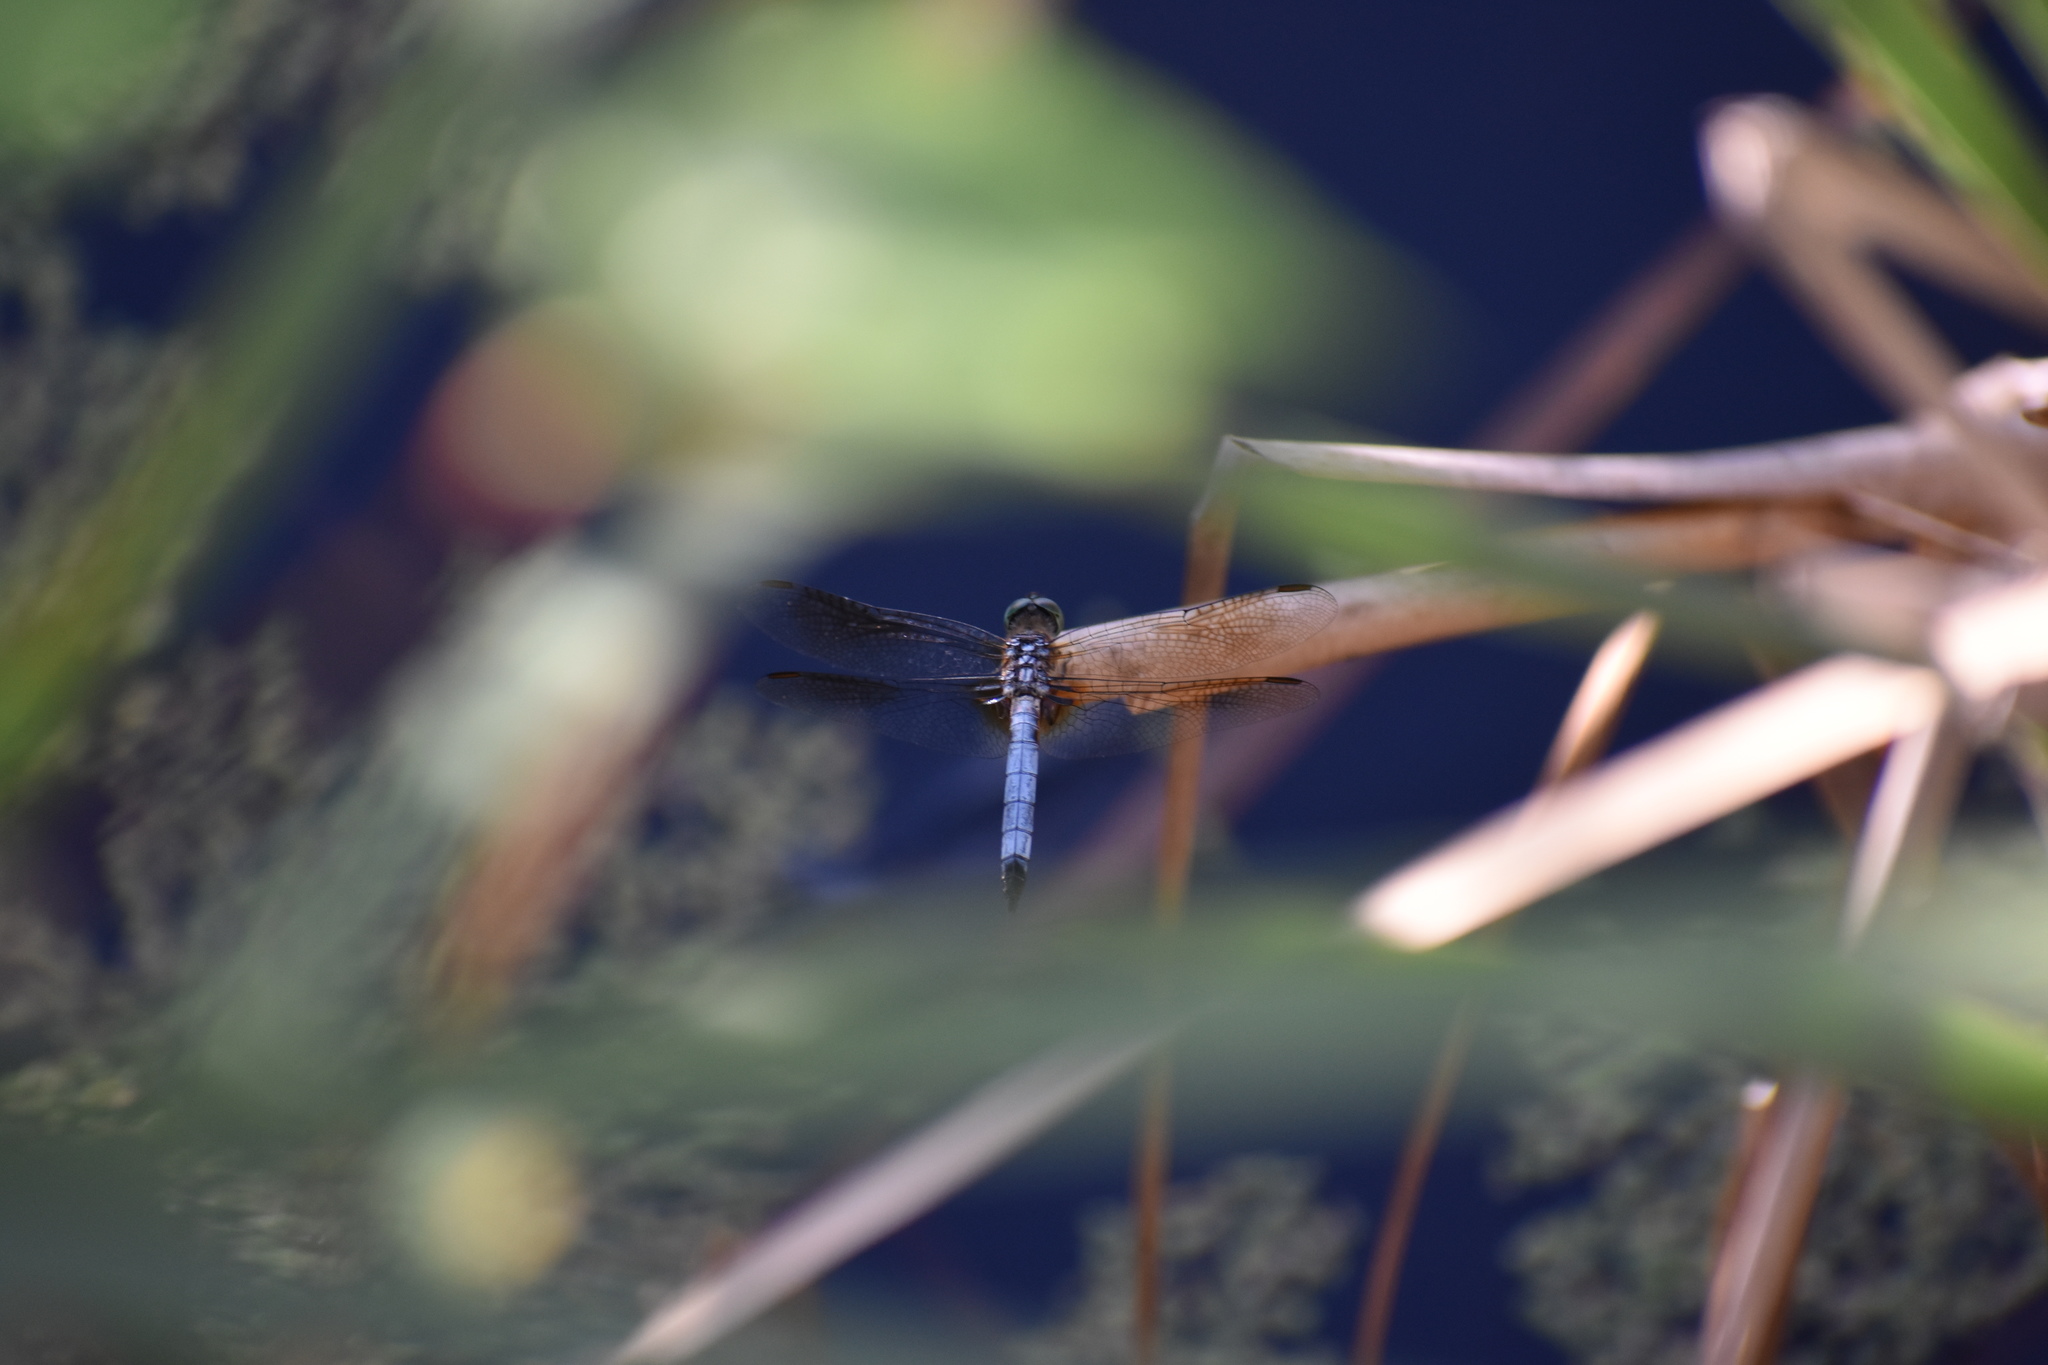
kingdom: Animalia
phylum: Arthropoda
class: Insecta
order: Odonata
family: Libellulidae
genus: Pachydiplax
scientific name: Pachydiplax longipennis
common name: Blue dasher
